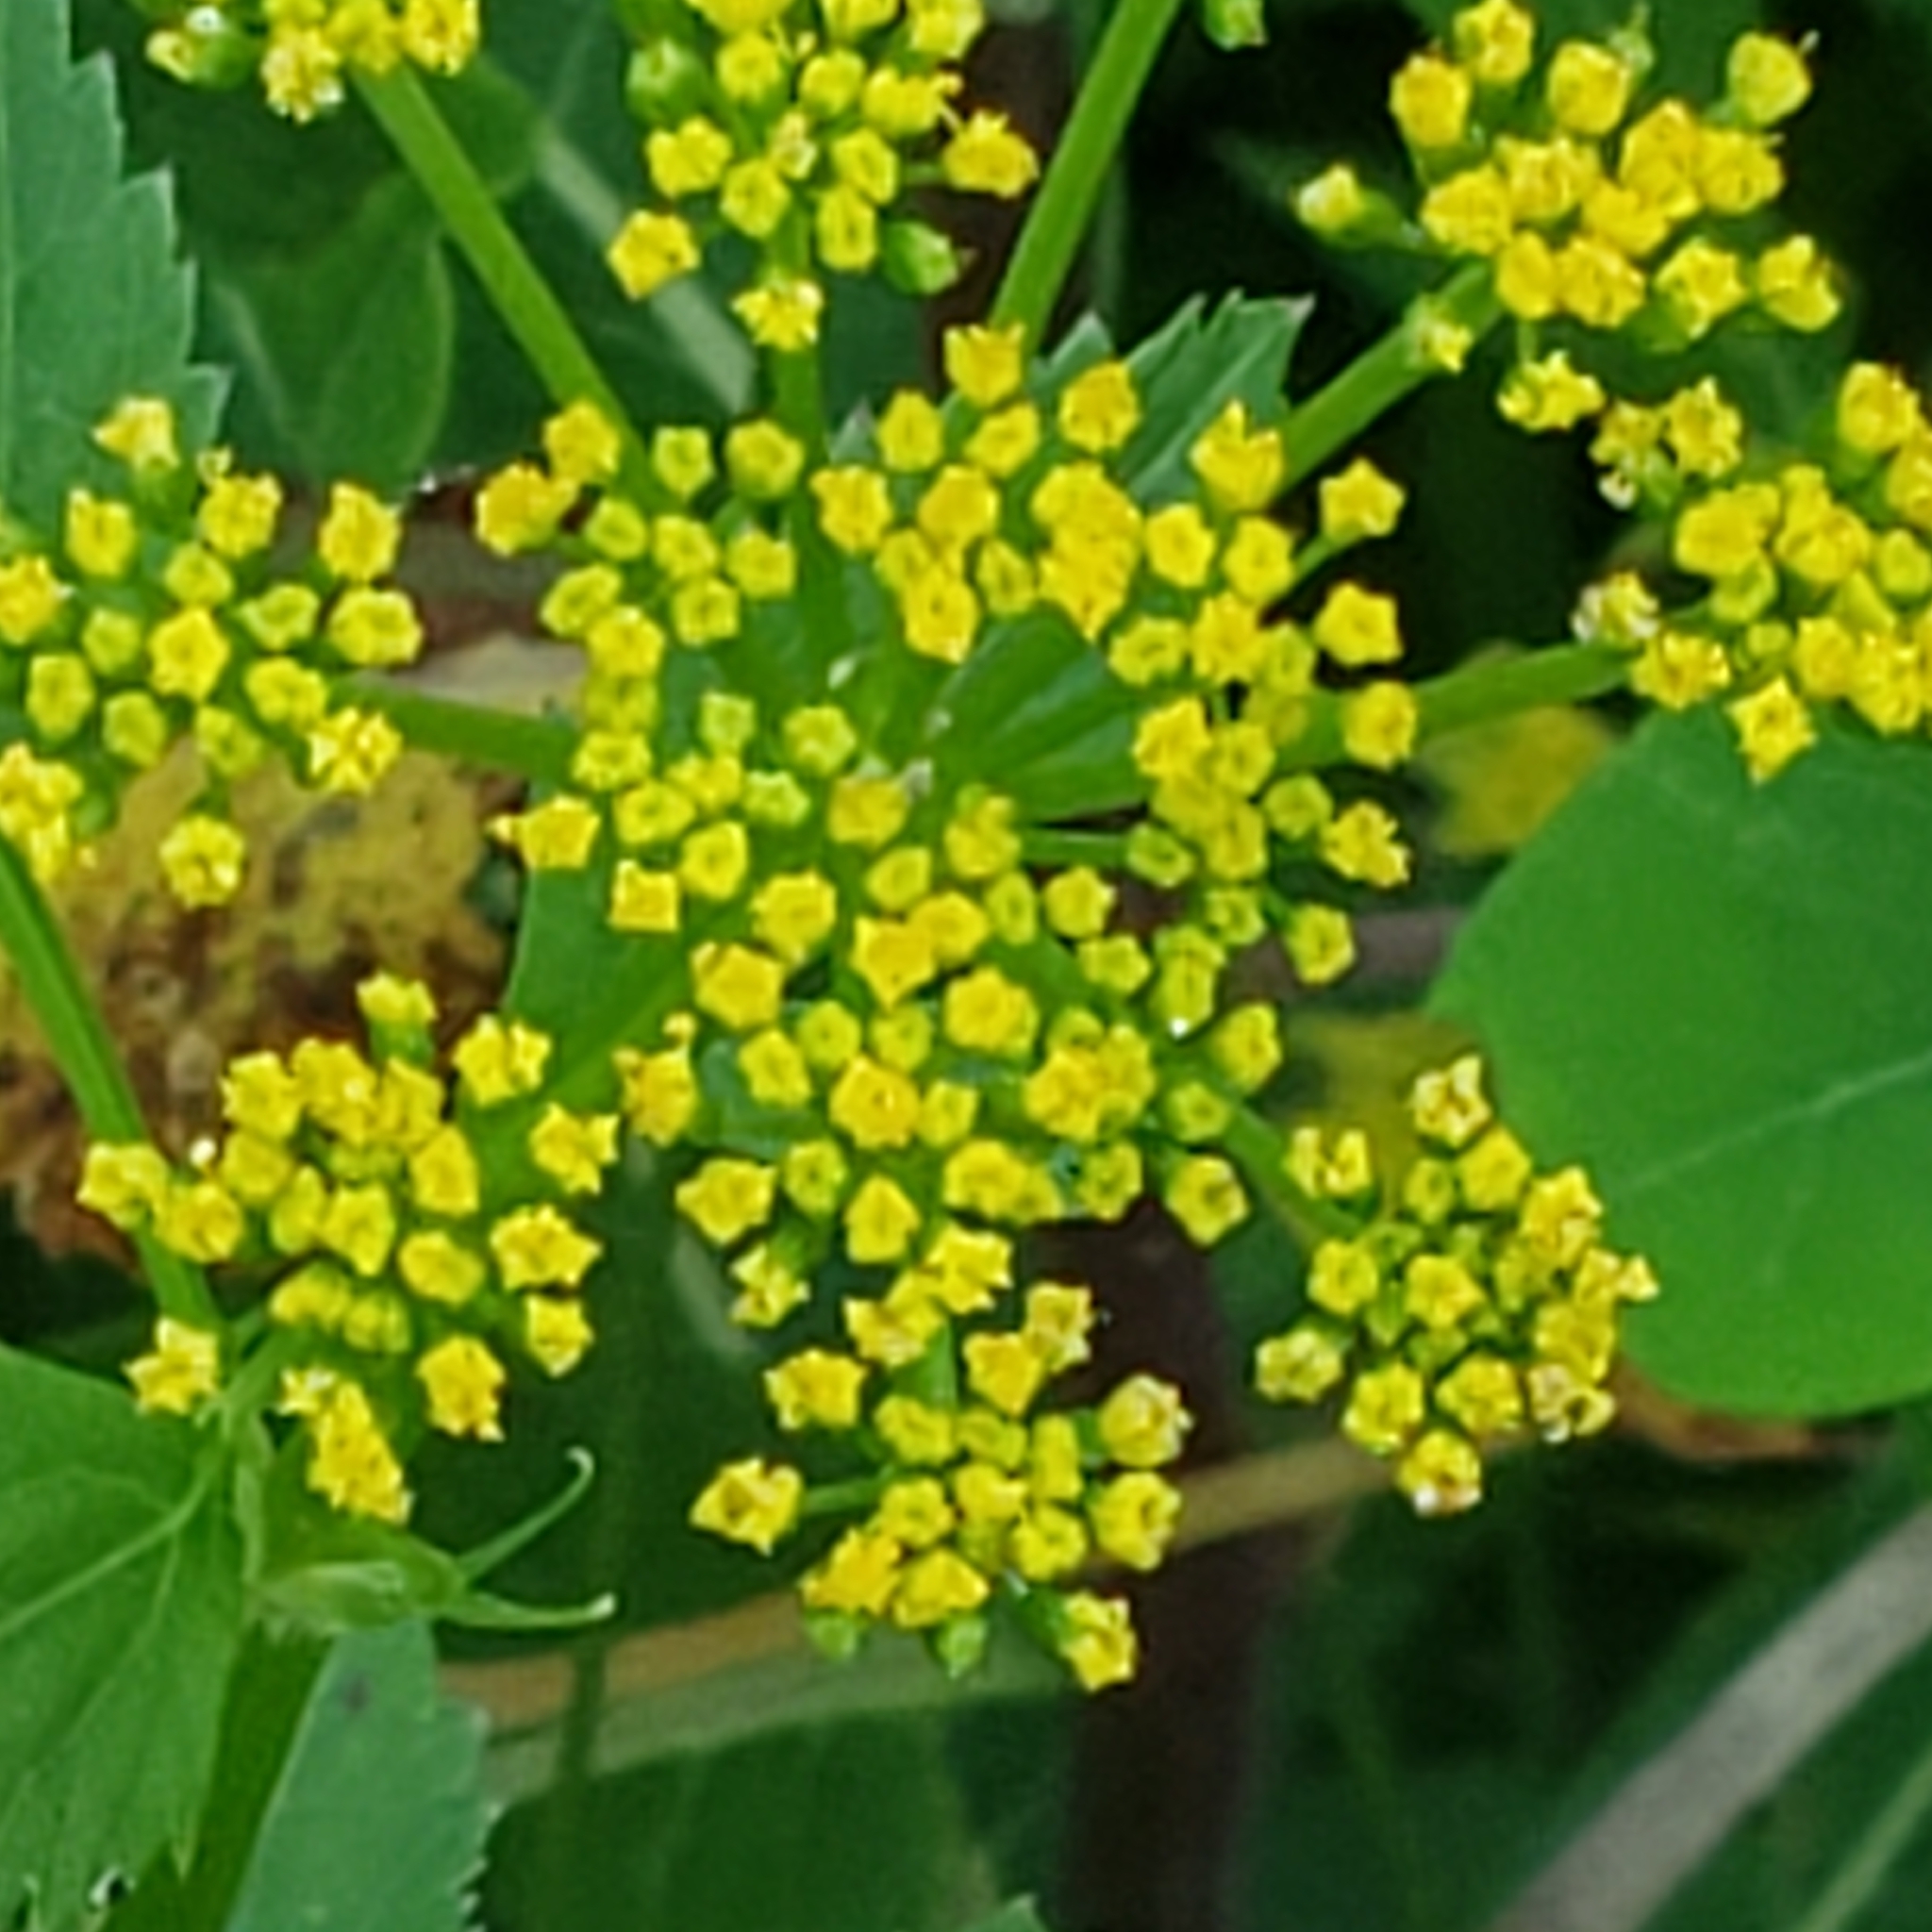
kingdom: Plantae
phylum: Tracheophyta
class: Magnoliopsida
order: Apiales
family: Apiaceae
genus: Zizia
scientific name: Zizia aurea
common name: Golden alexanders
